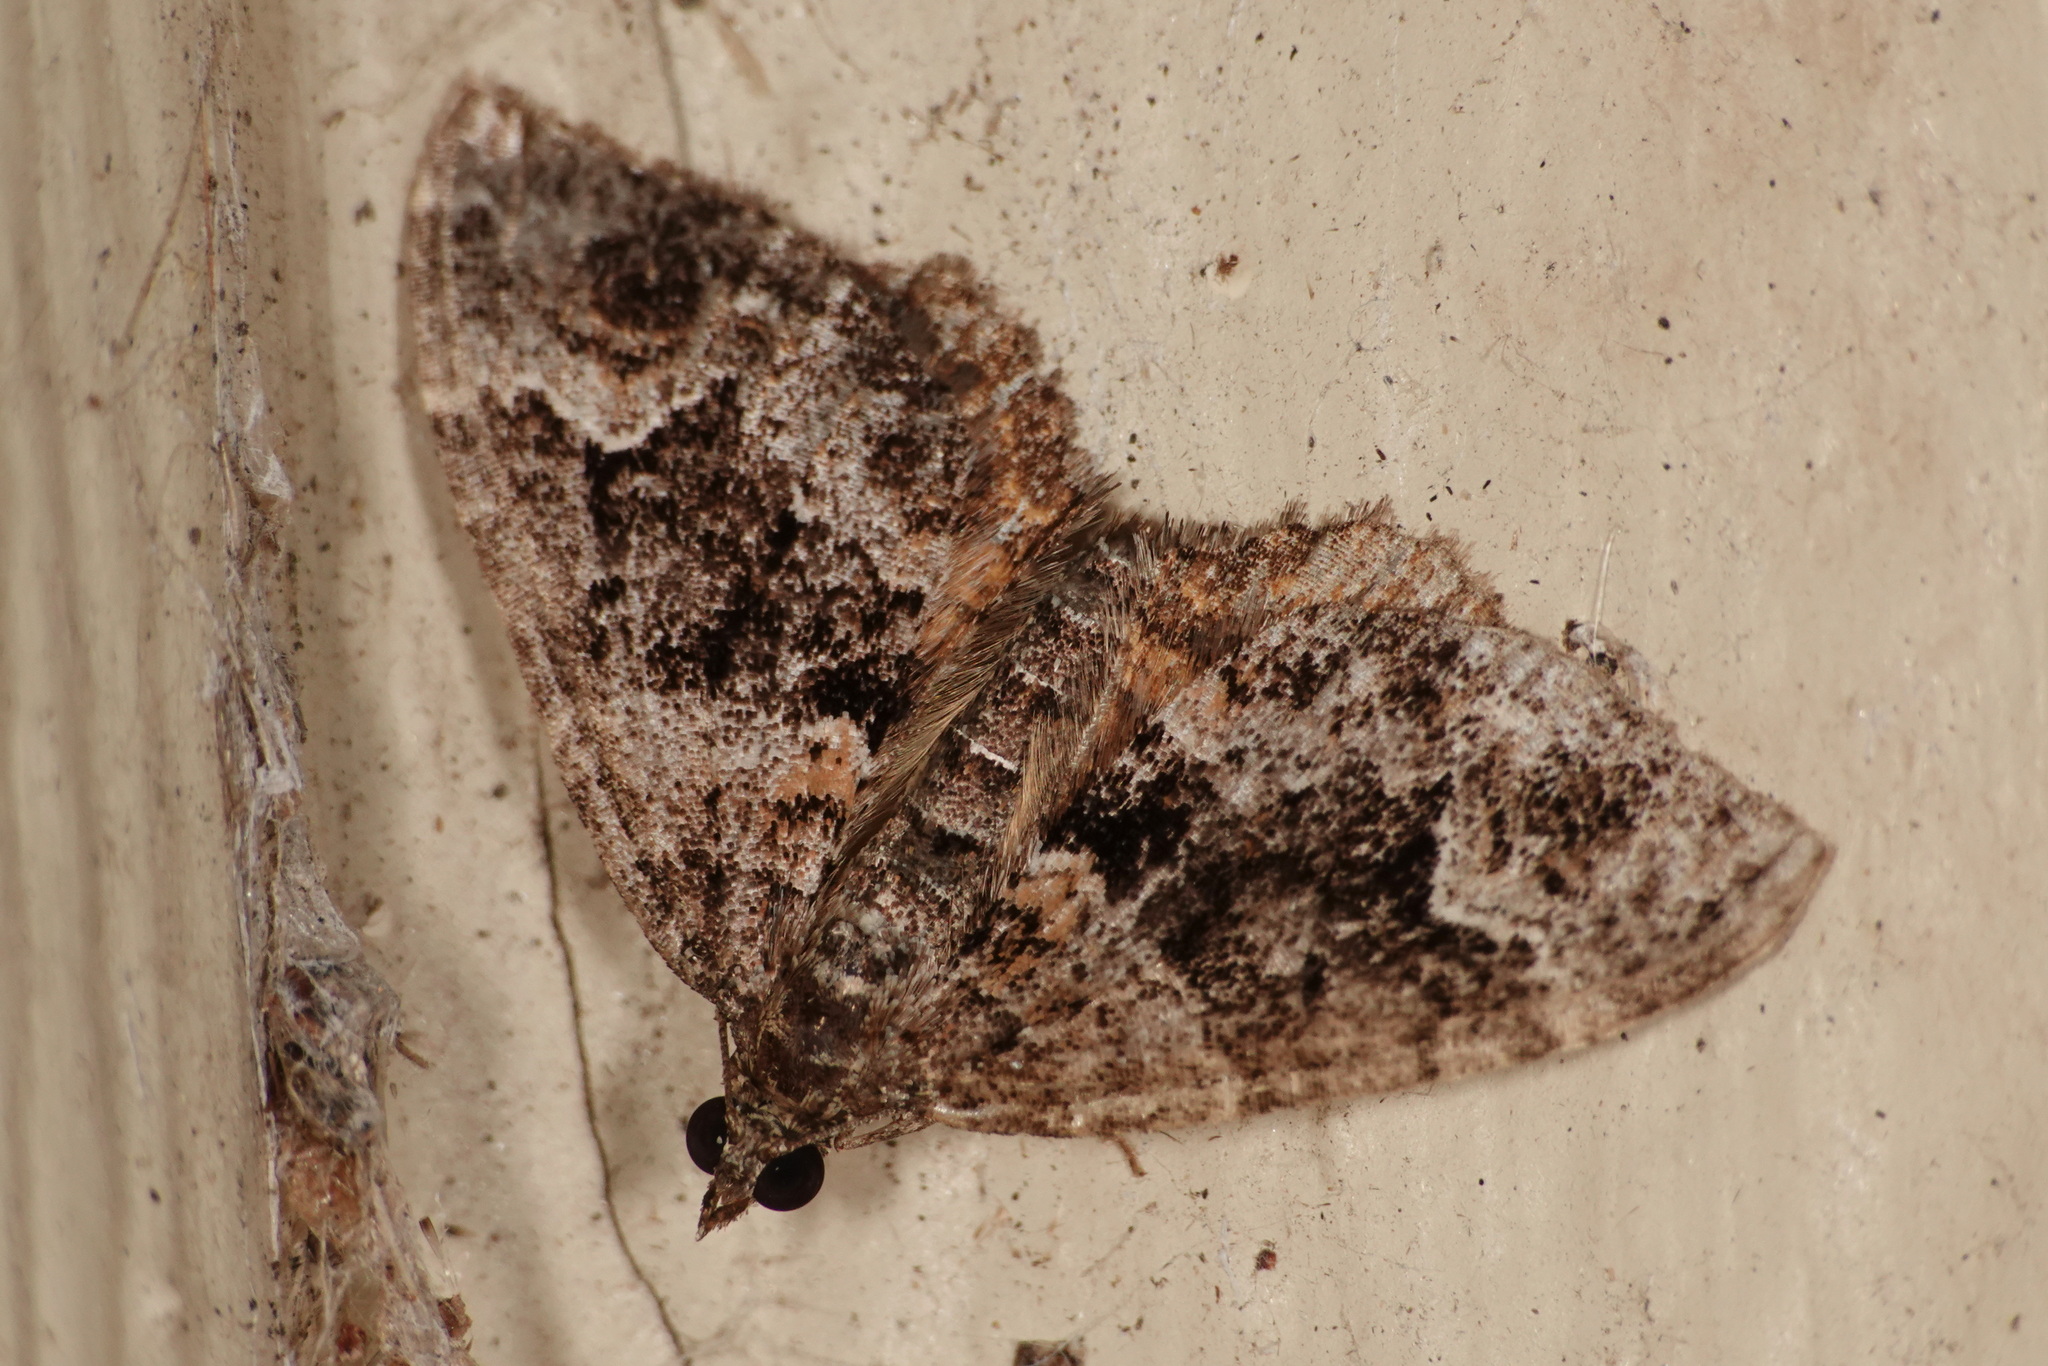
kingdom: Animalia
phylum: Arthropoda
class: Insecta
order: Lepidoptera
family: Geometridae
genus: Chrysolarentia
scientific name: Chrysolarentia adornata
